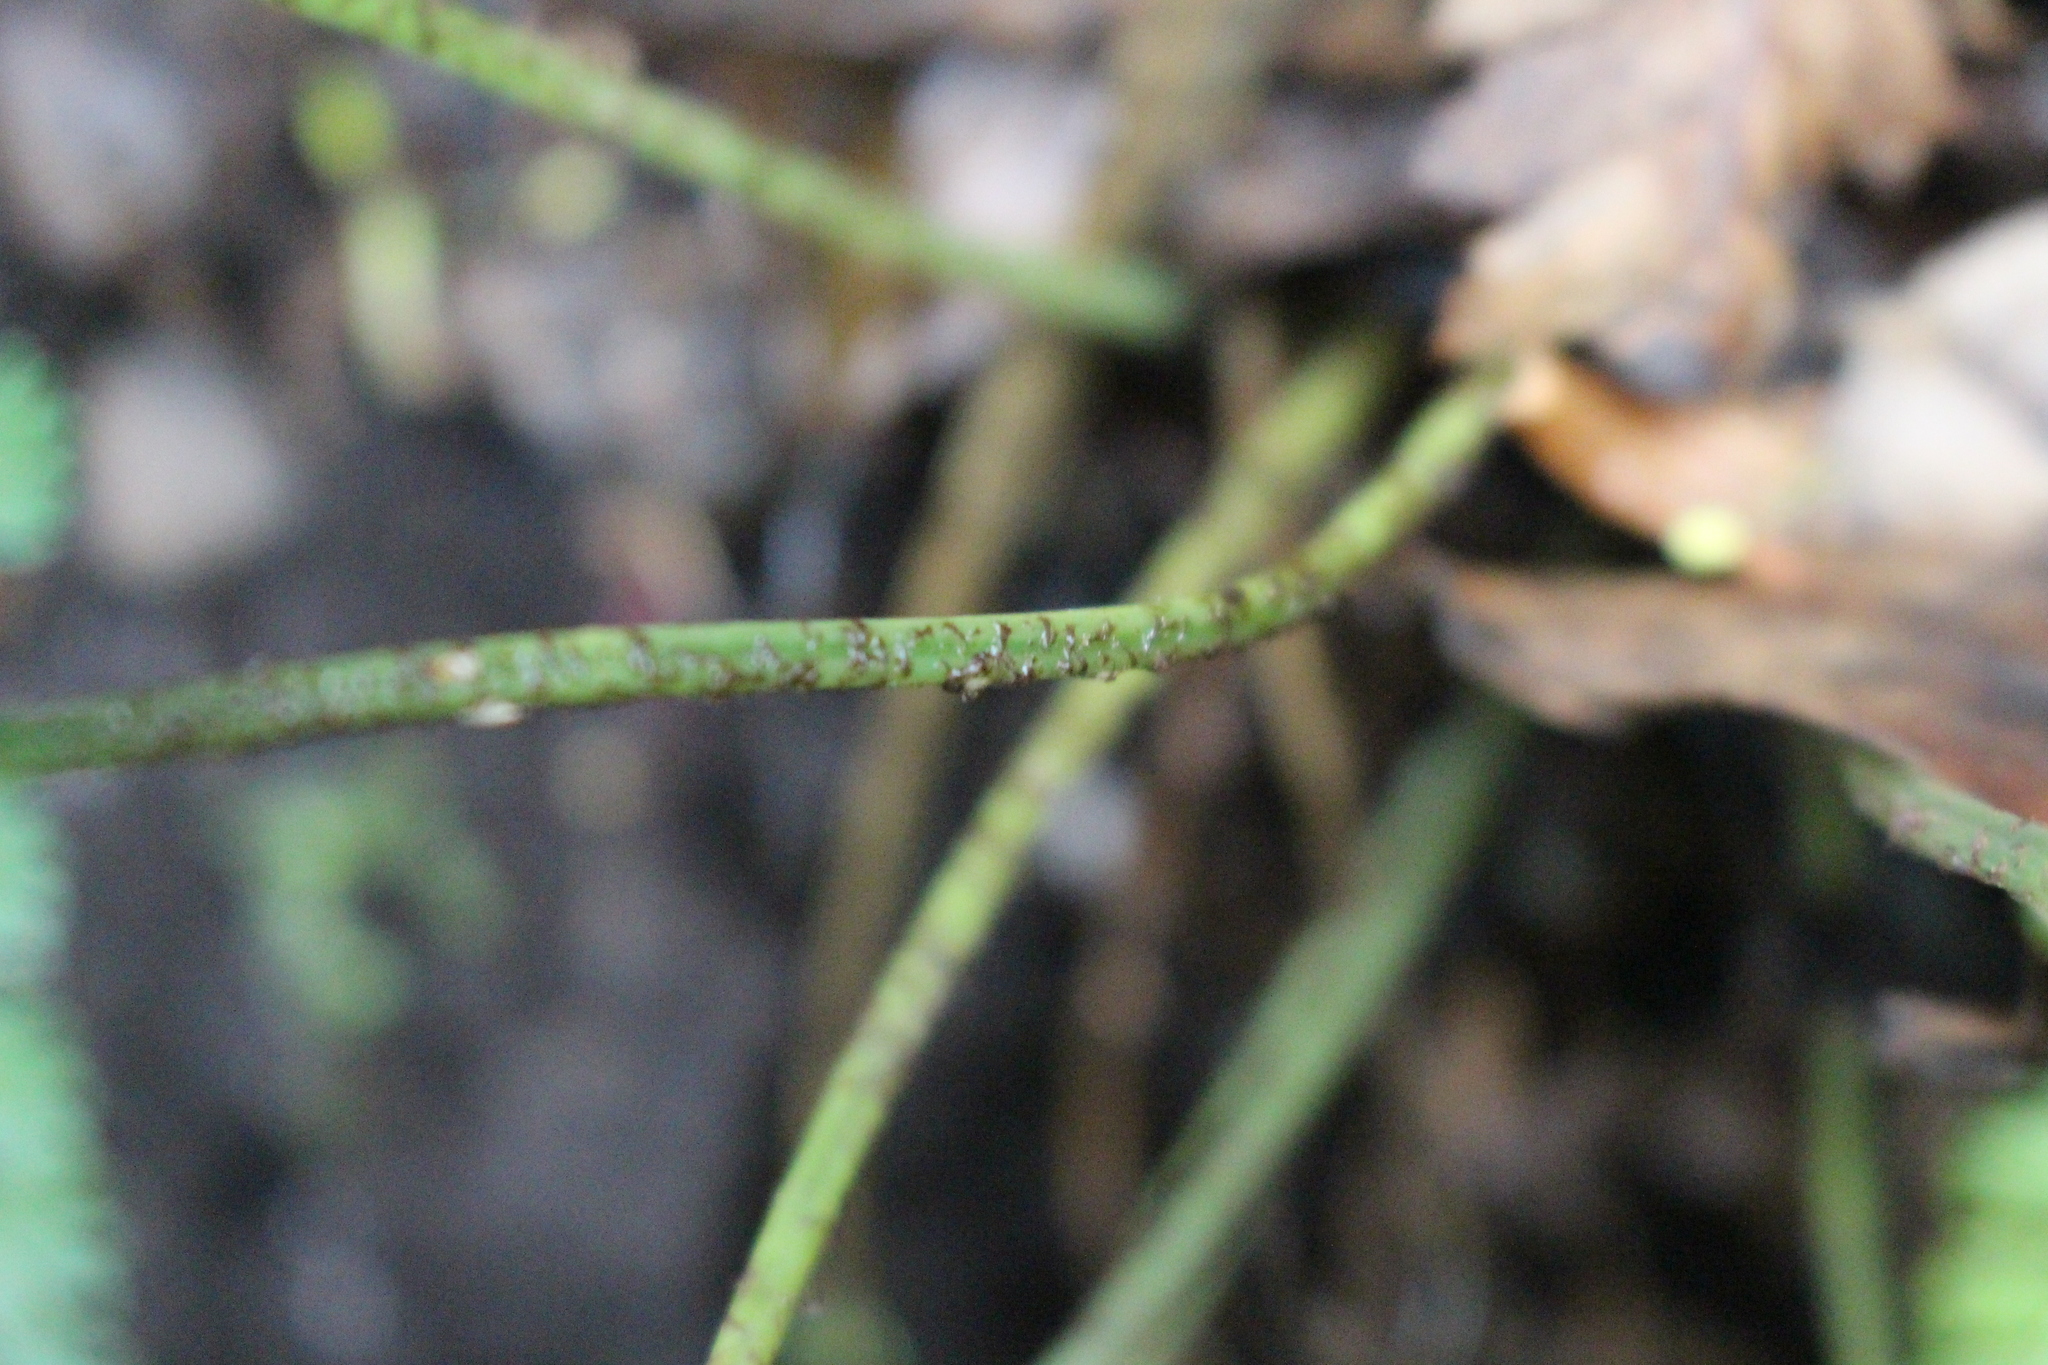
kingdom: Plantae
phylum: Tracheophyta
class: Polypodiopsida
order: Polypodiales
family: Aspleniaceae
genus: Asplenium
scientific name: Asplenium
